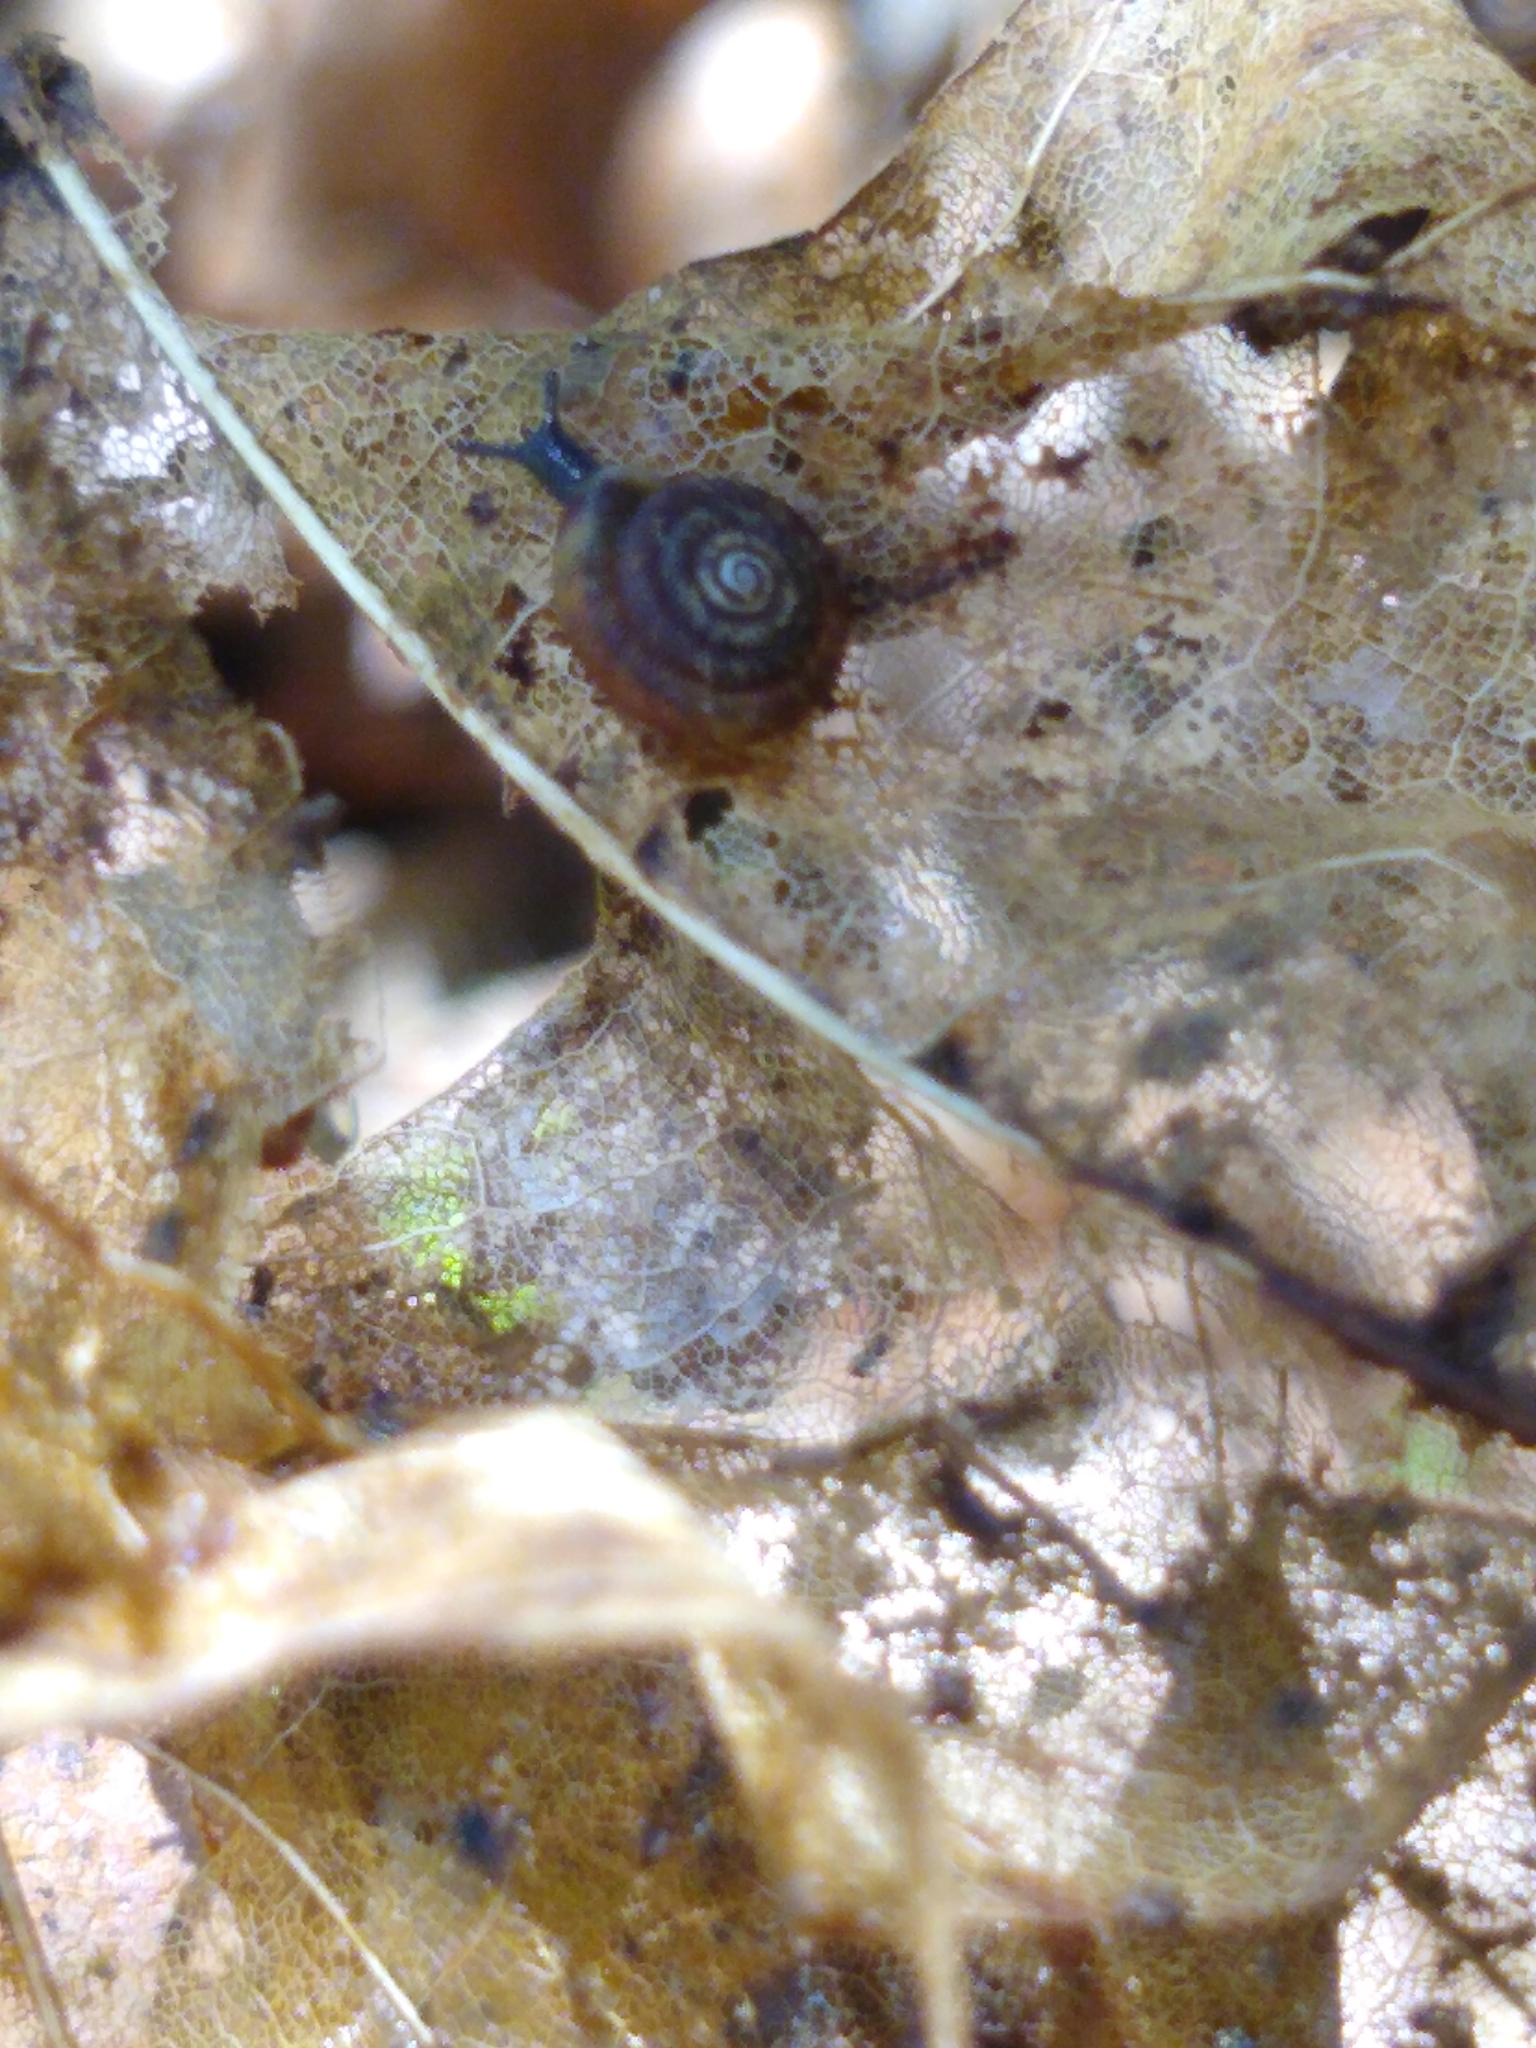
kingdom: Animalia
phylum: Mollusca
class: Gastropoda
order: Stylommatophora
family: Discidae
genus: Discus
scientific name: Discus rotundatus
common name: Rounded snail
